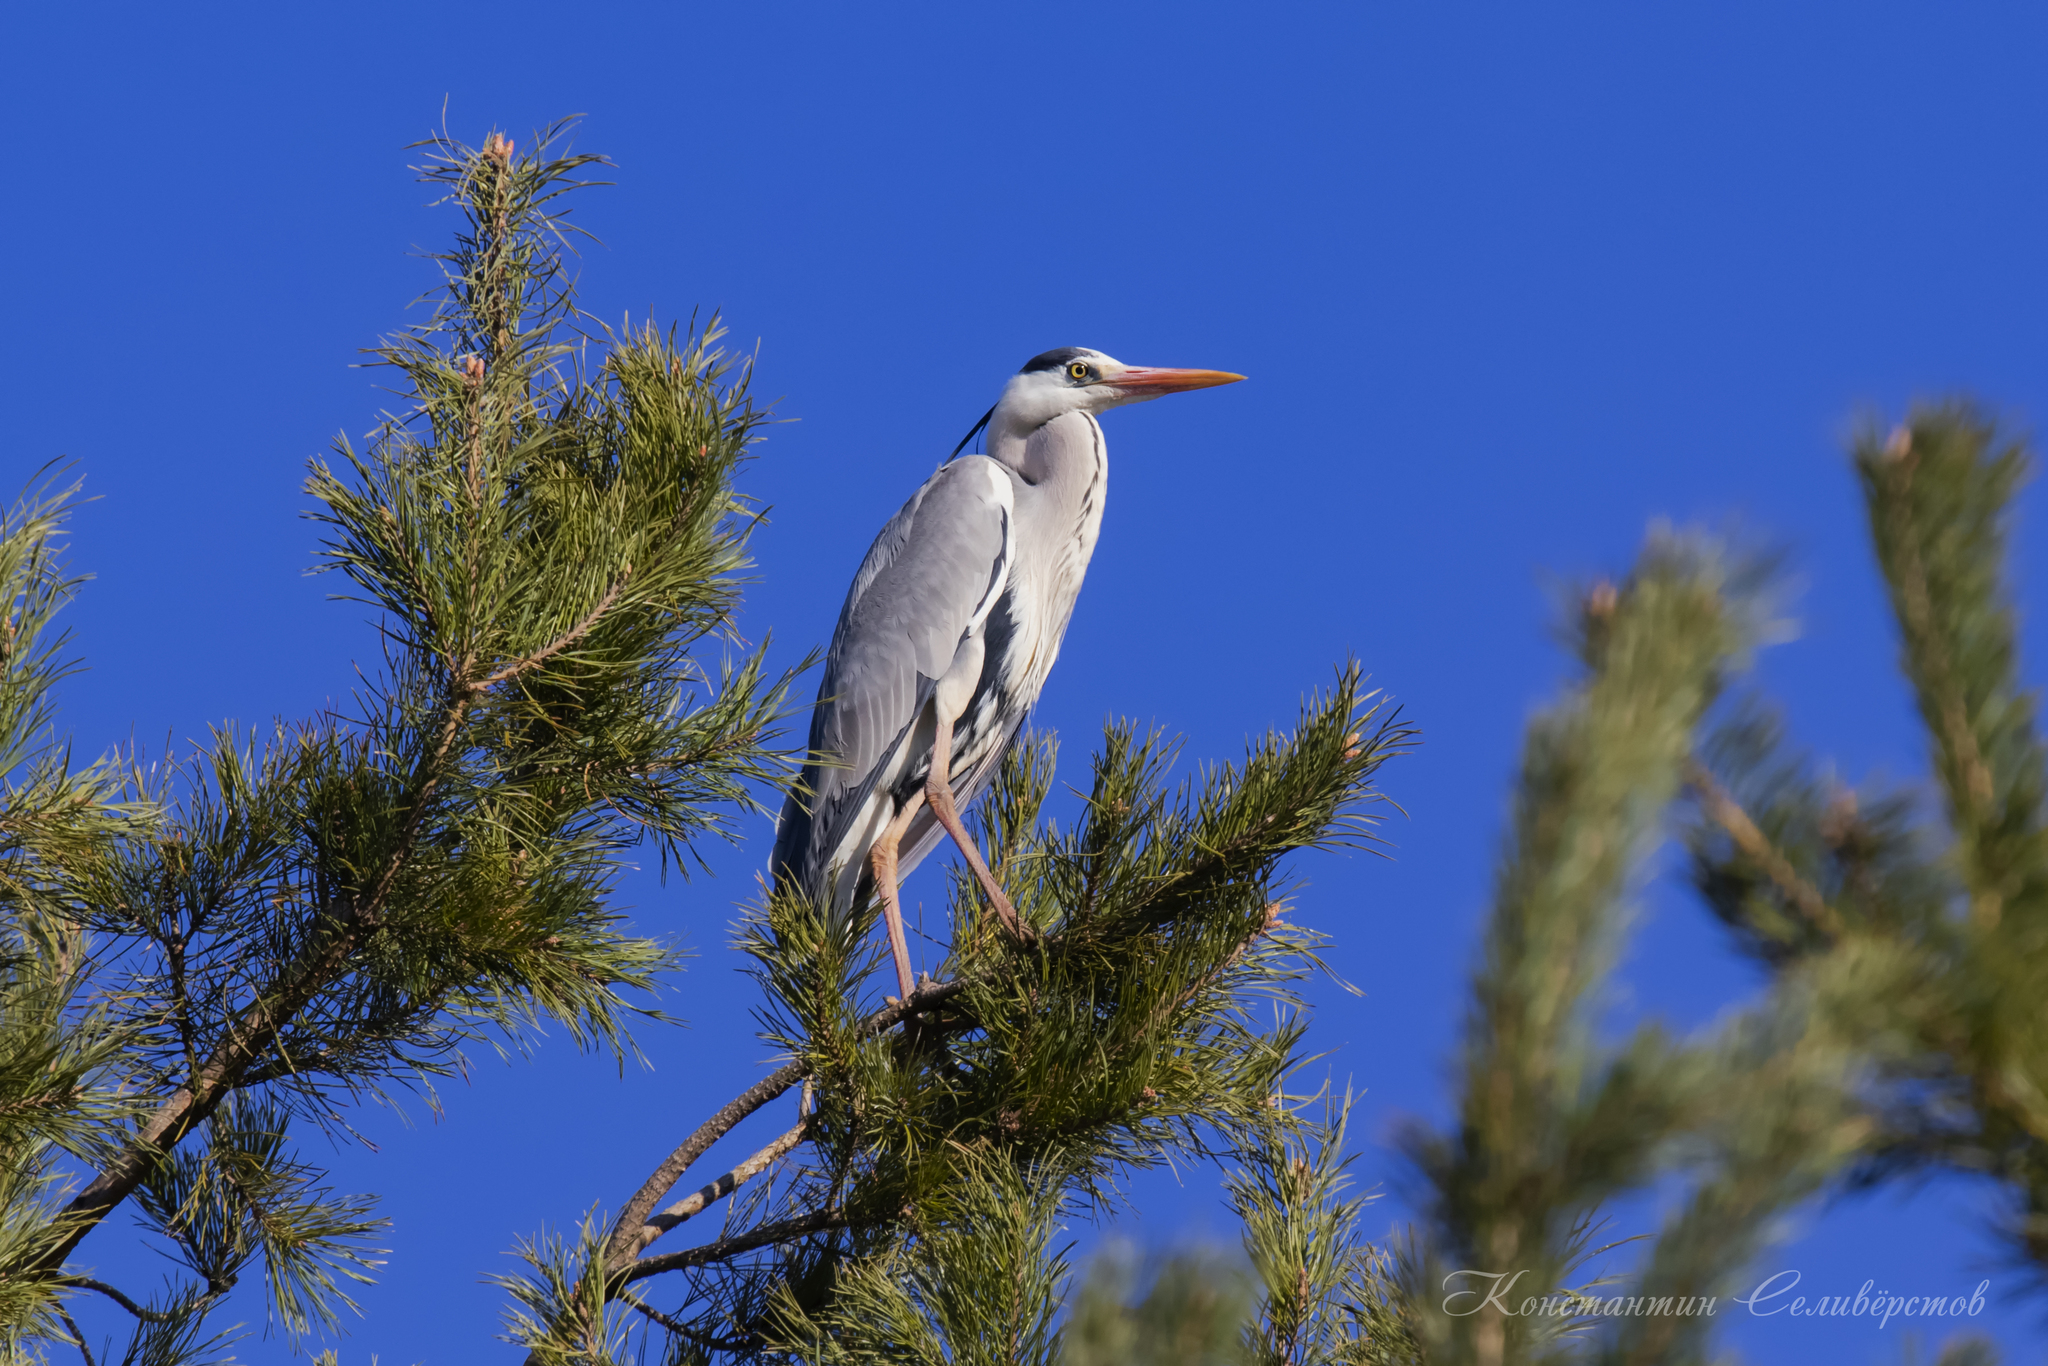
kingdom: Animalia
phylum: Chordata
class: Aves
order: Pelecaniformes
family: Ardeidae
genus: Ardea
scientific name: Ardea cinerea
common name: Grey heron
